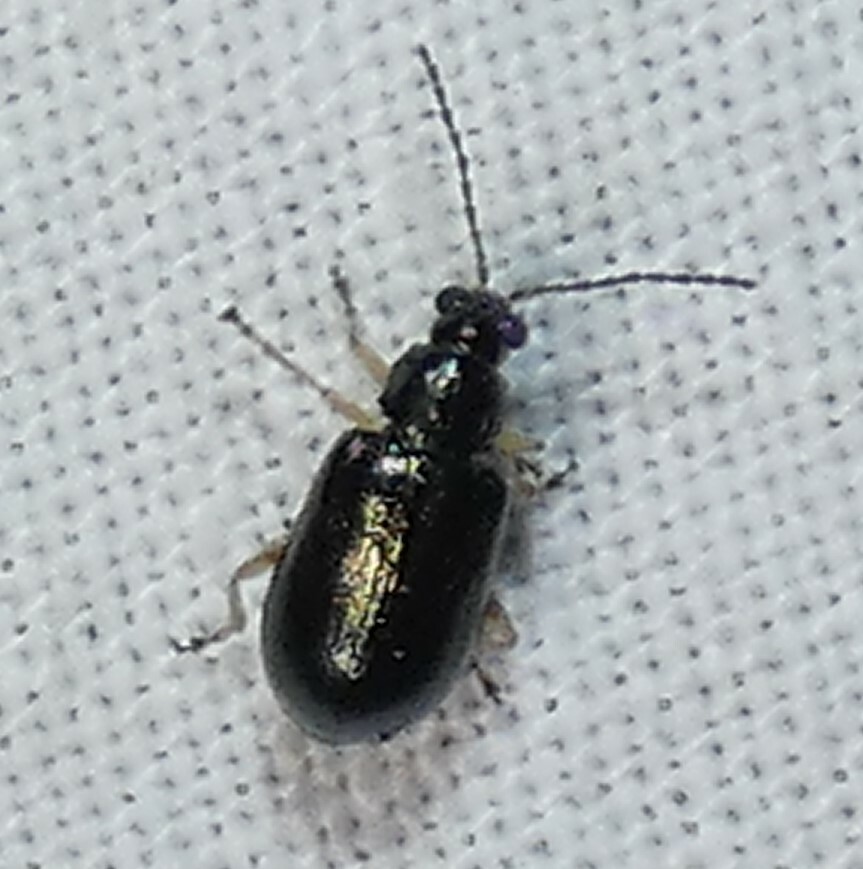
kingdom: Animalia
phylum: Arthropoda
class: Insecta
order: Coleoptera
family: Chrysomelidae
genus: Lysathia
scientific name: Lysathia ludoviciana
